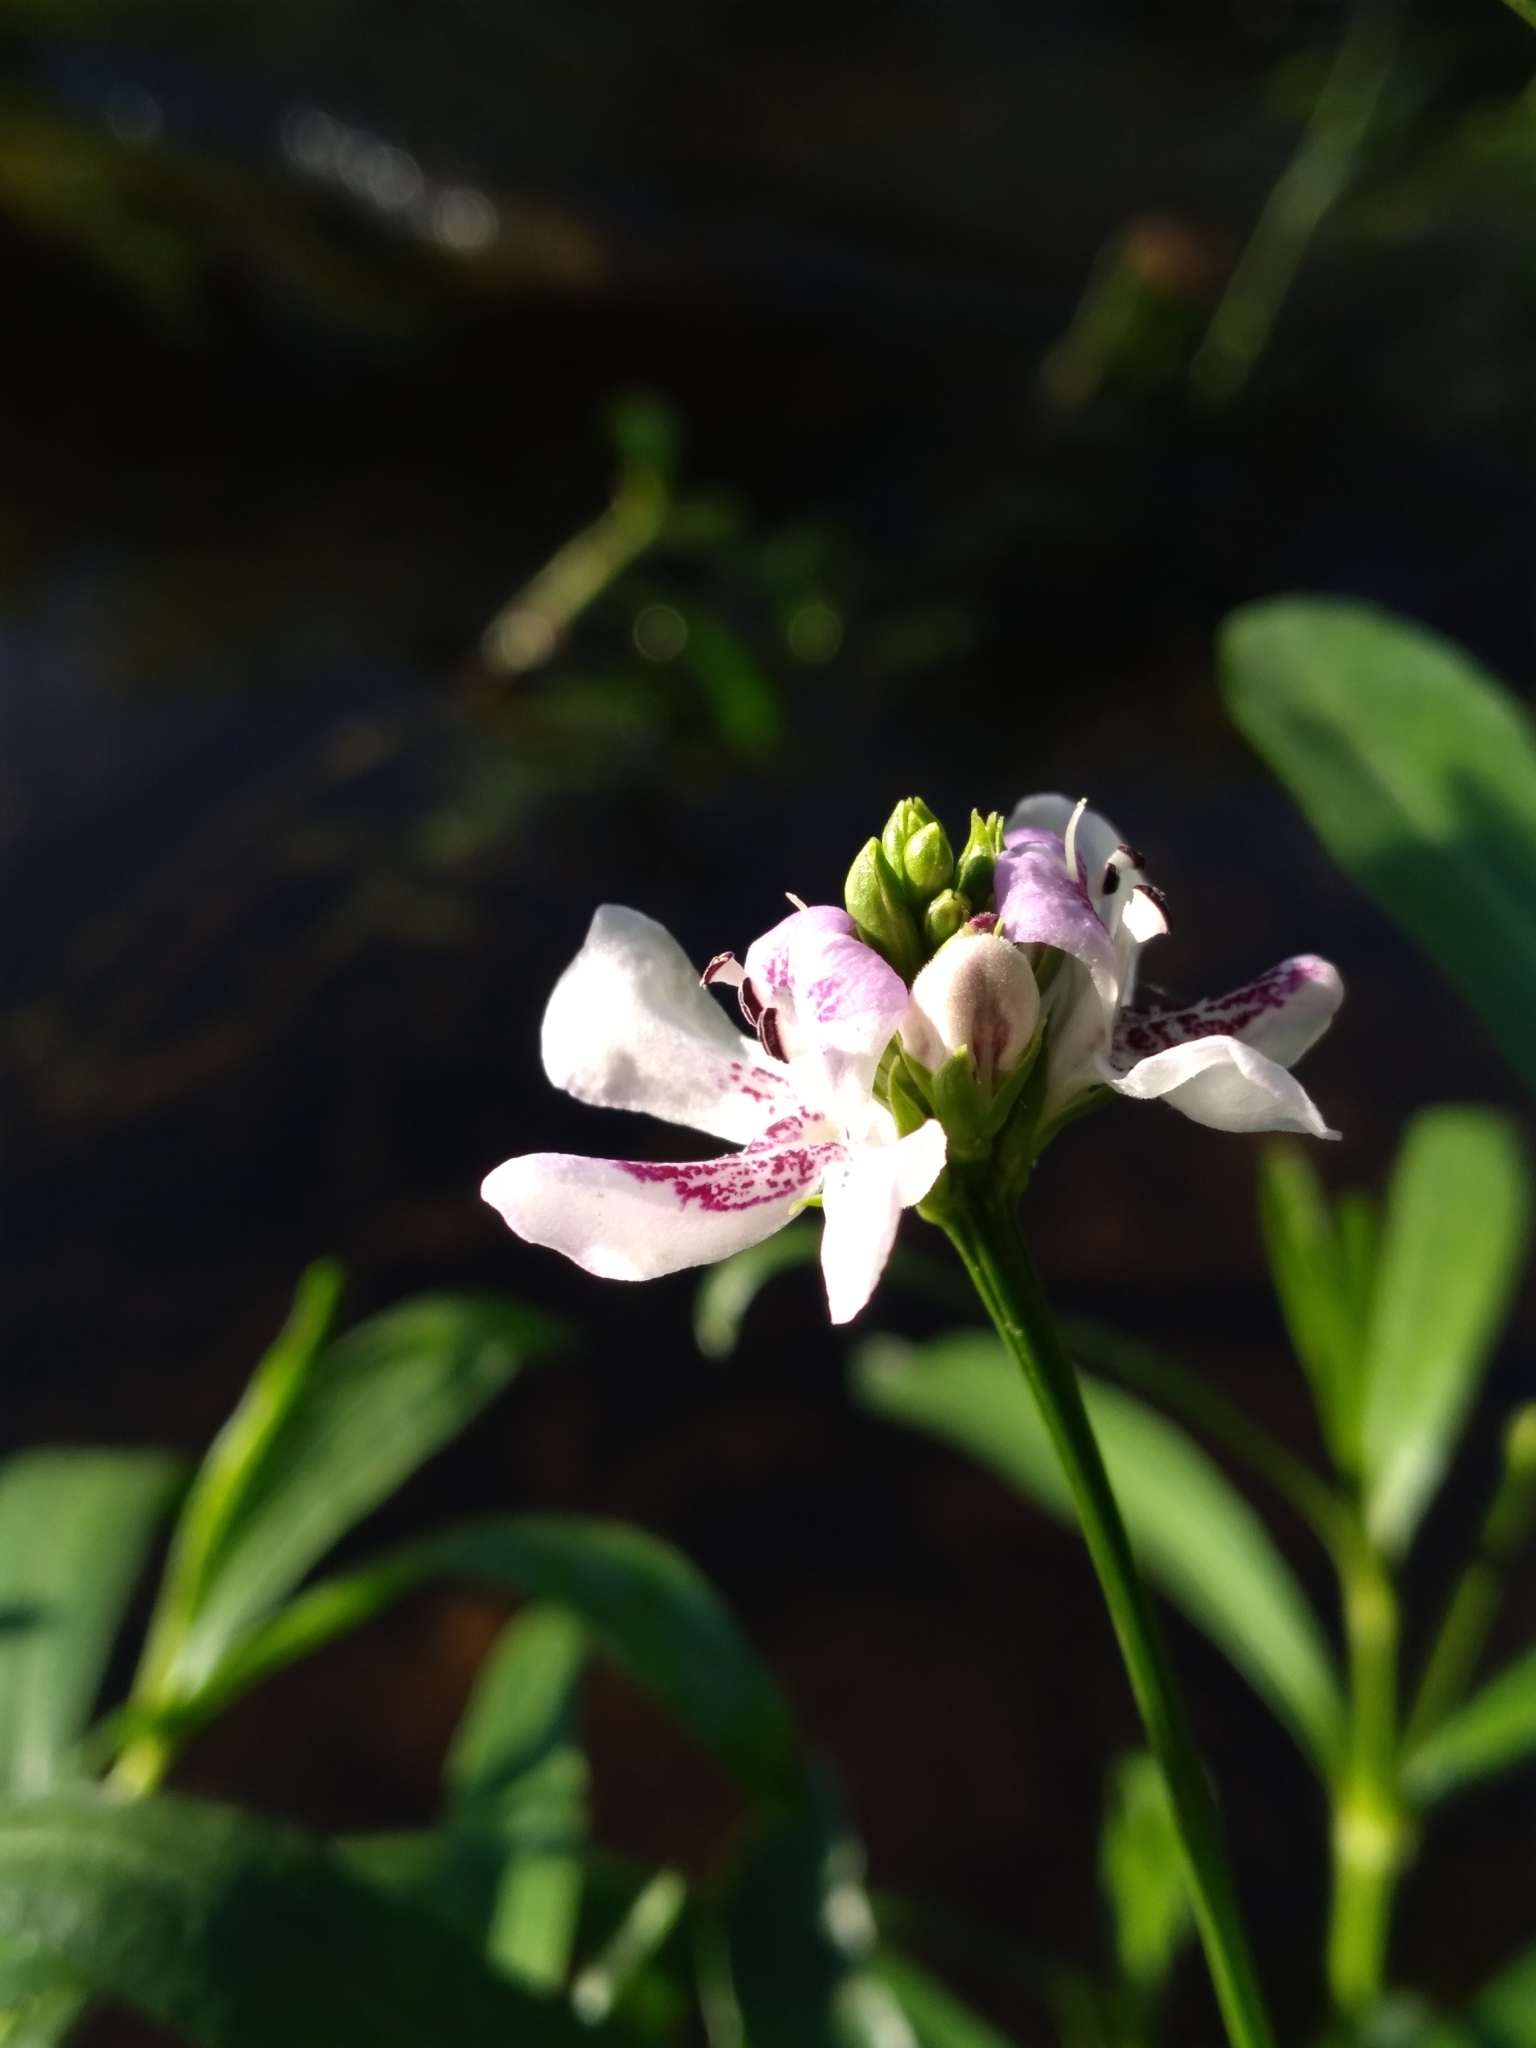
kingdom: Plantae
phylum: Tracheophyta
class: Magnoliopsida
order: Lamiales
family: Acanthaceae
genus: Dianthera
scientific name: Dianthera americana
